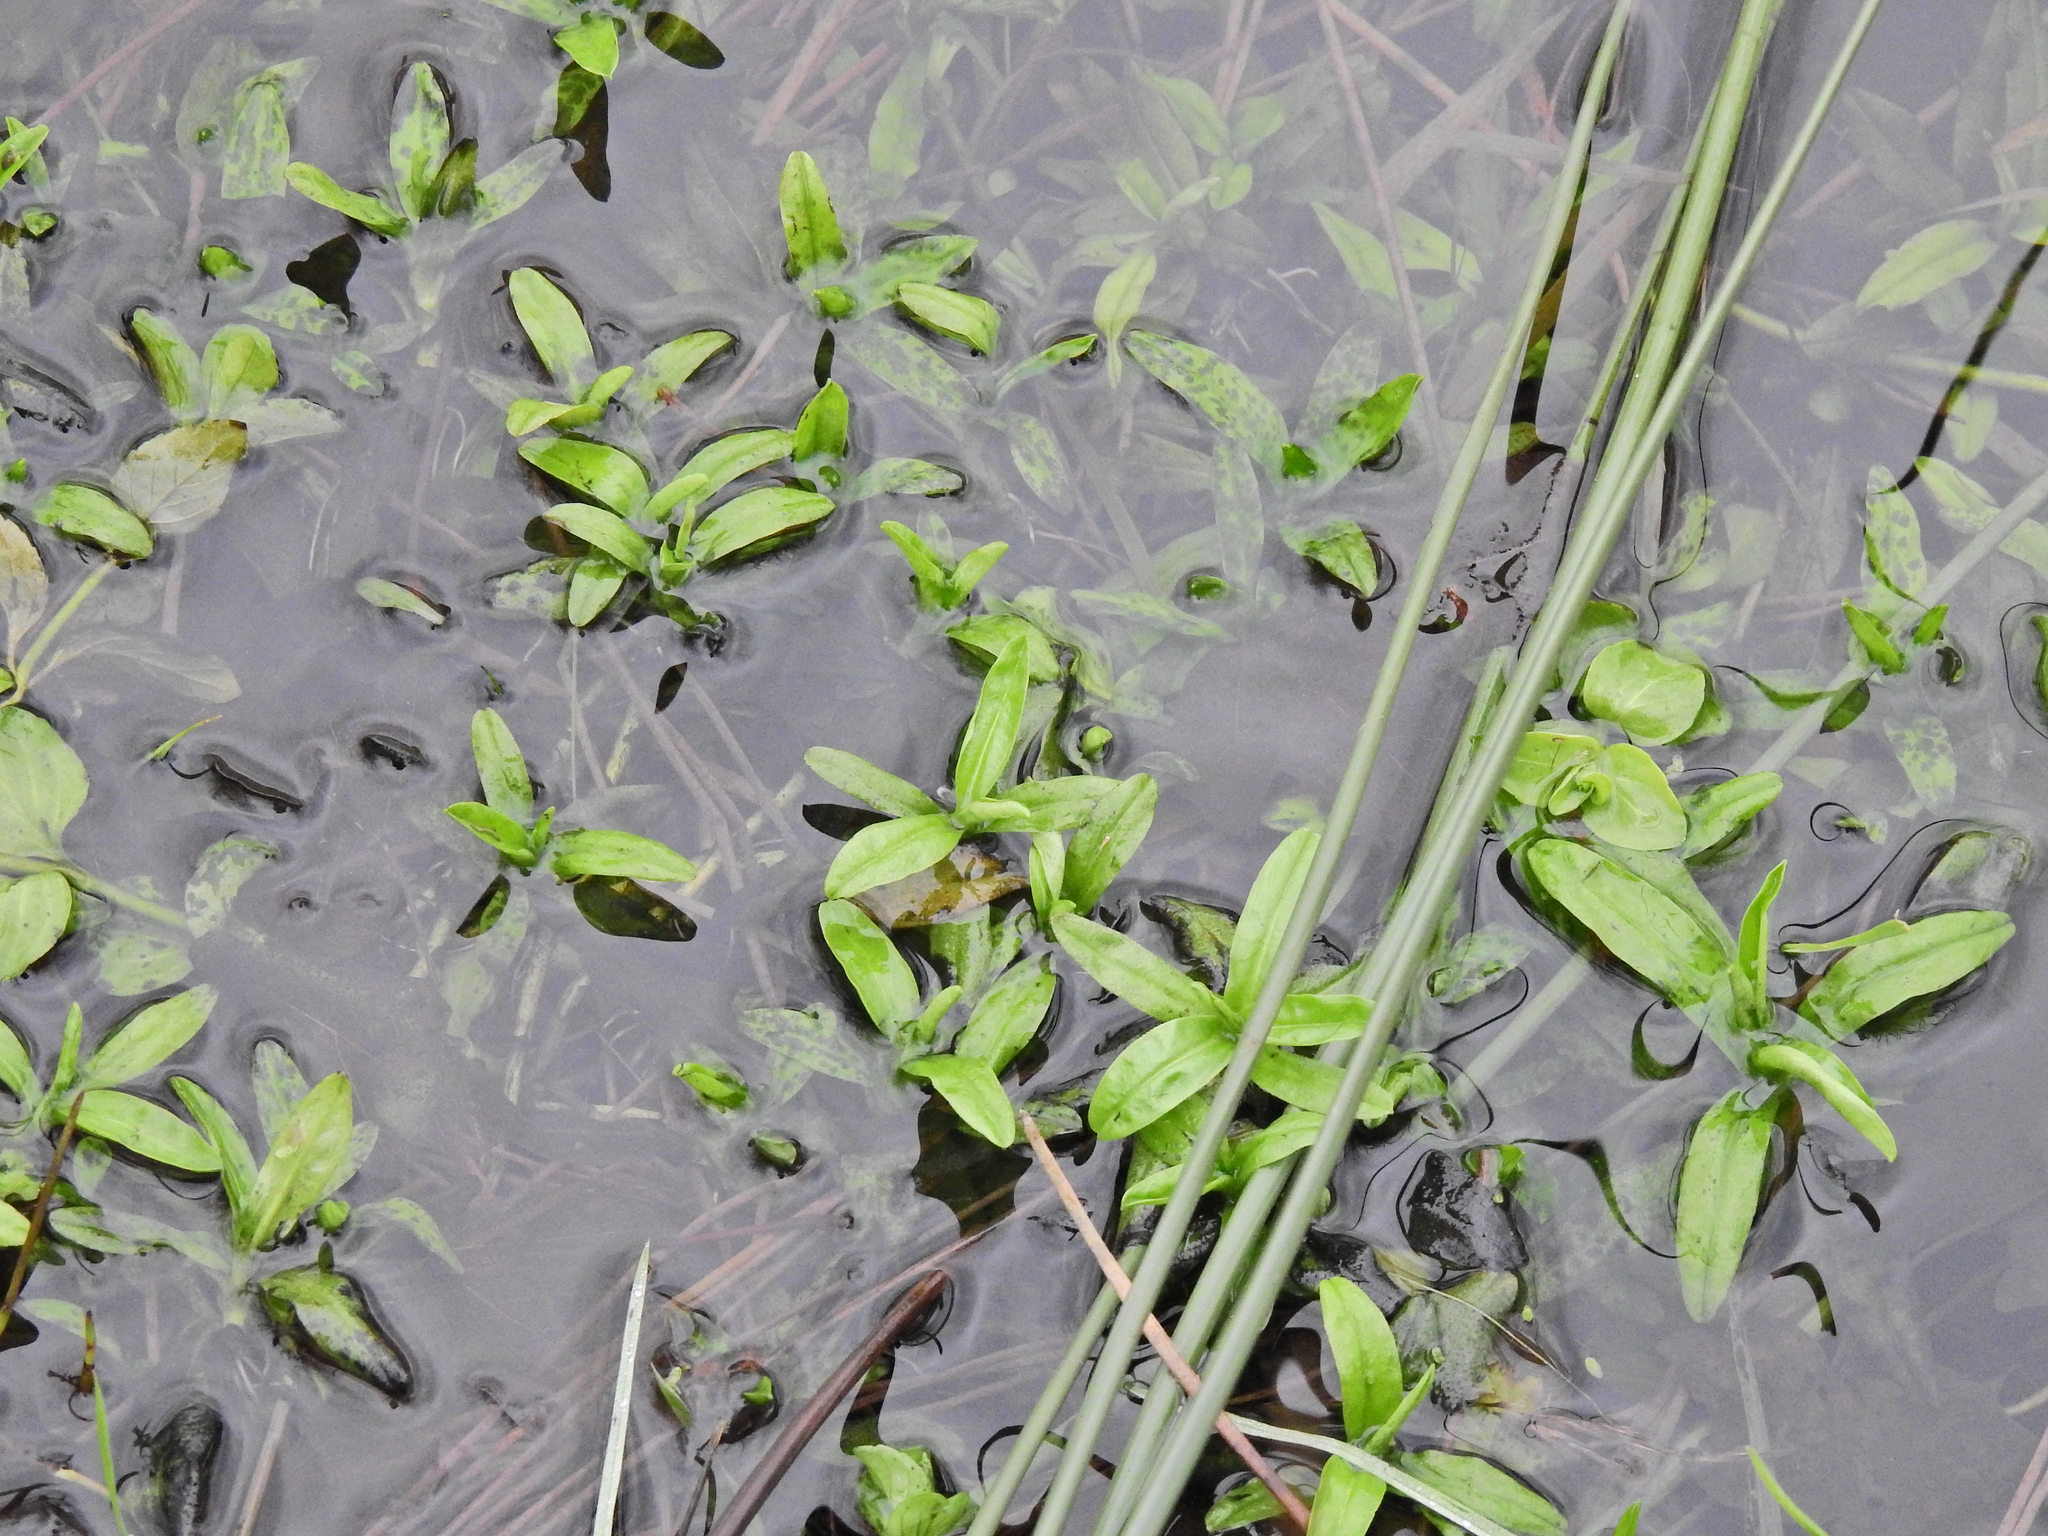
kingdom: Plantae
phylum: Tracheophyta
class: Magnoliopsida
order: Boraginales
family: Boraginaceae
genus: Myosotis
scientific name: Myosotis scorpioides
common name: Water forget-me-not
